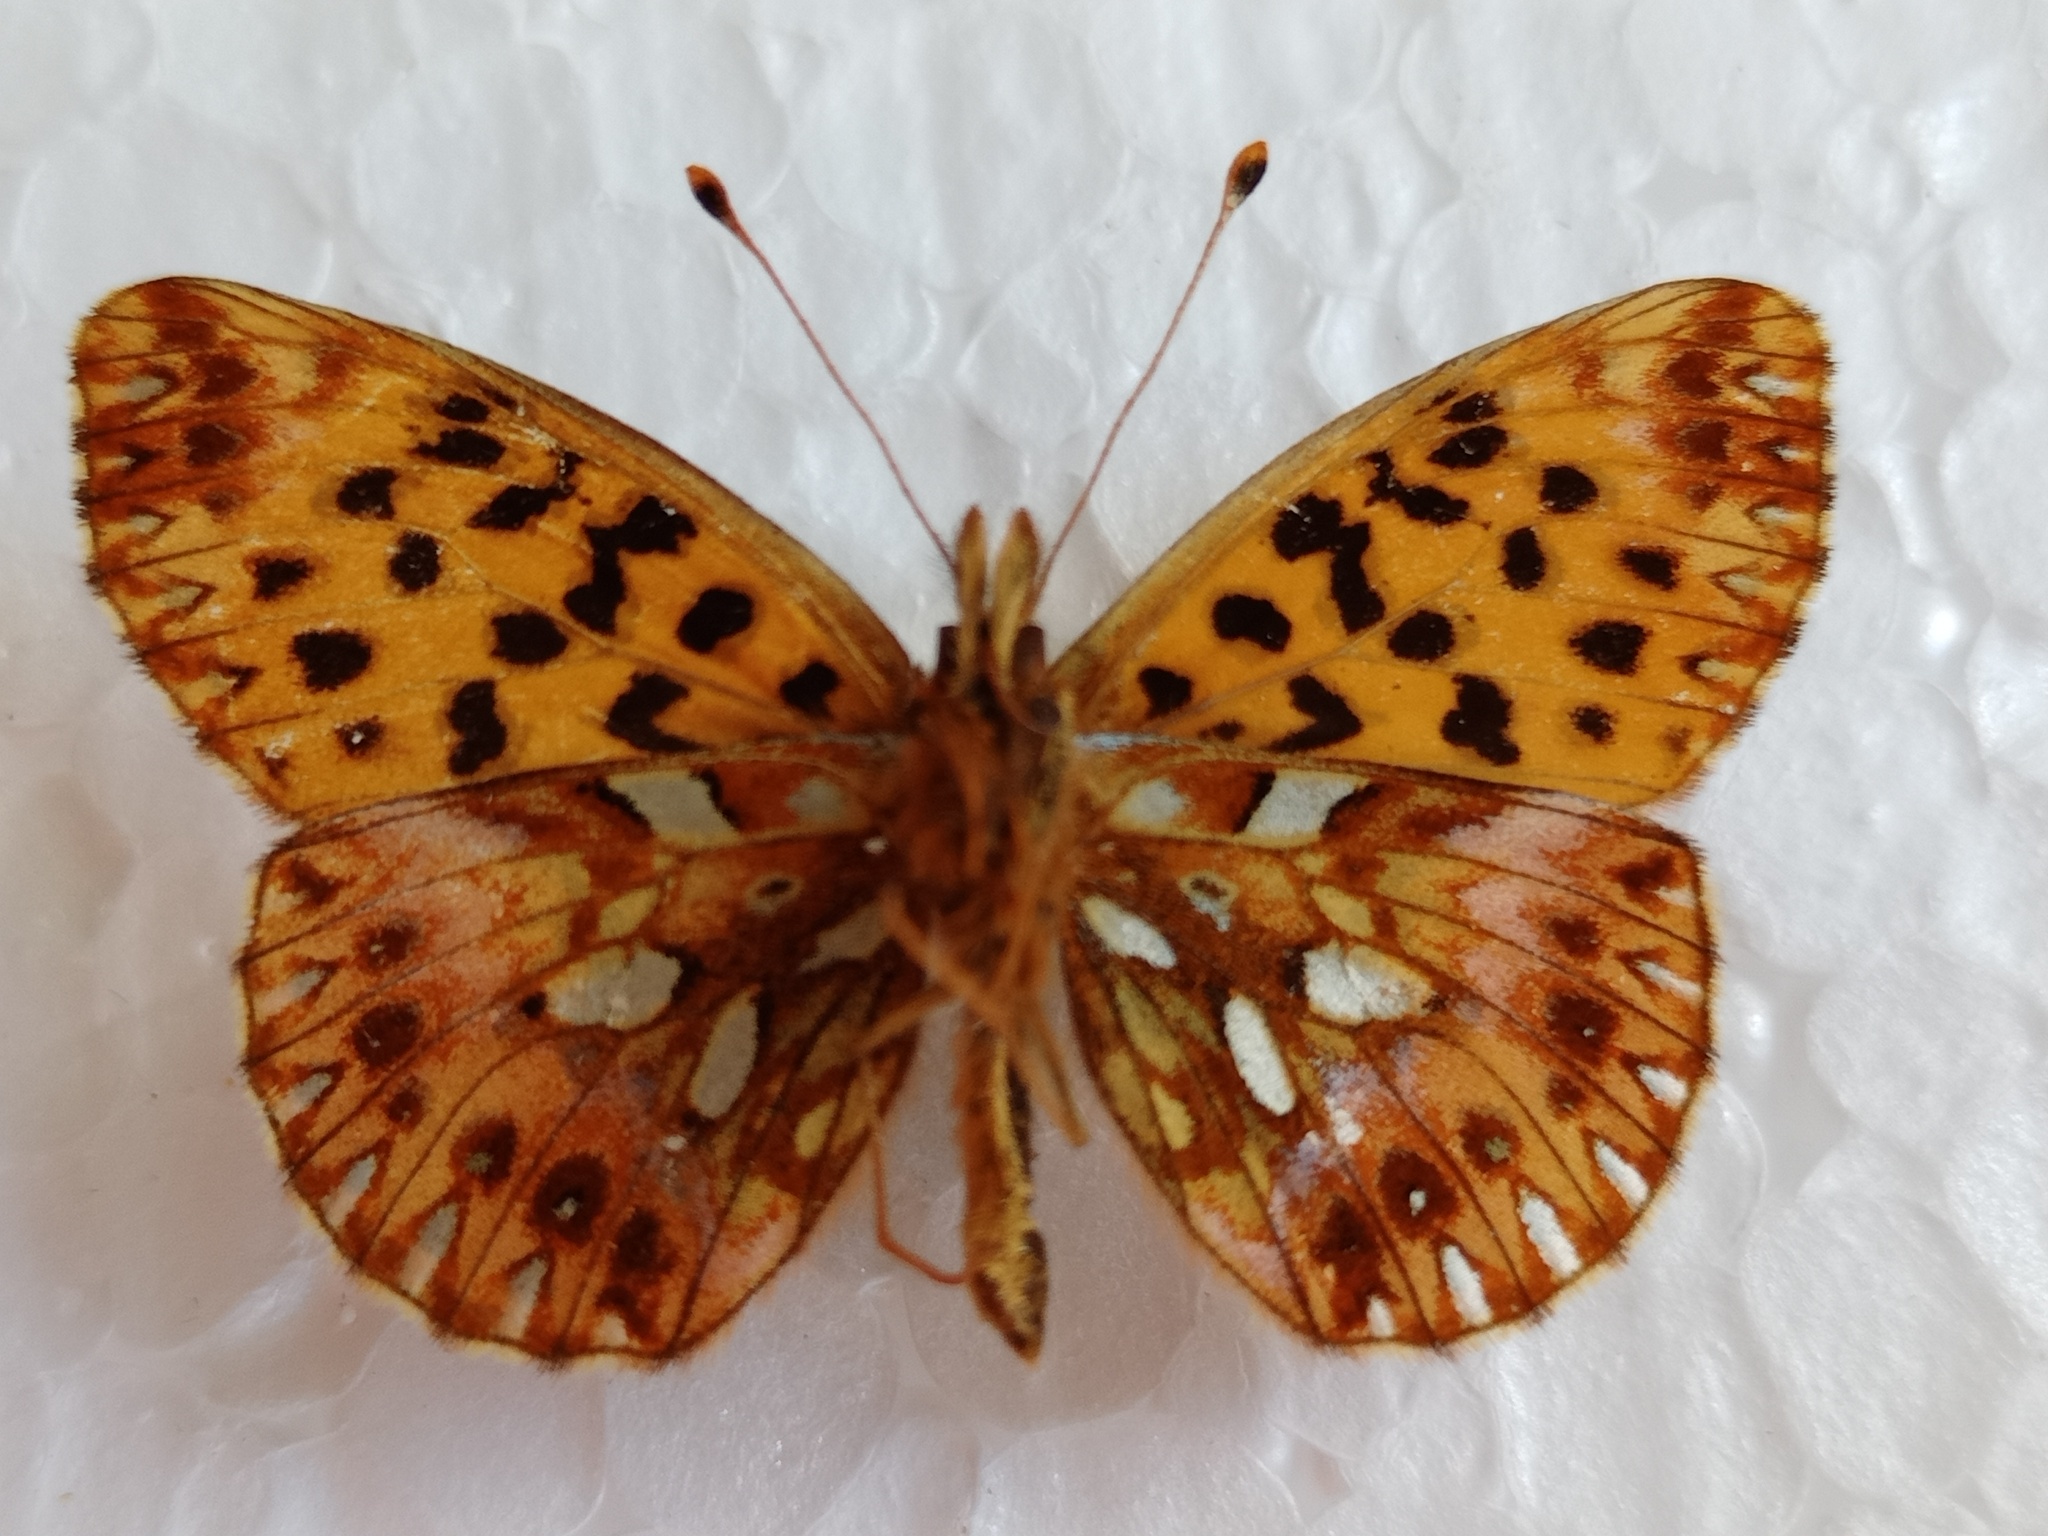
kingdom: Animalia
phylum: Arthropoda
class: Insecta
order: Lepidoptera
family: Nymphalidae
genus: Boloria
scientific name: Boloria gong
